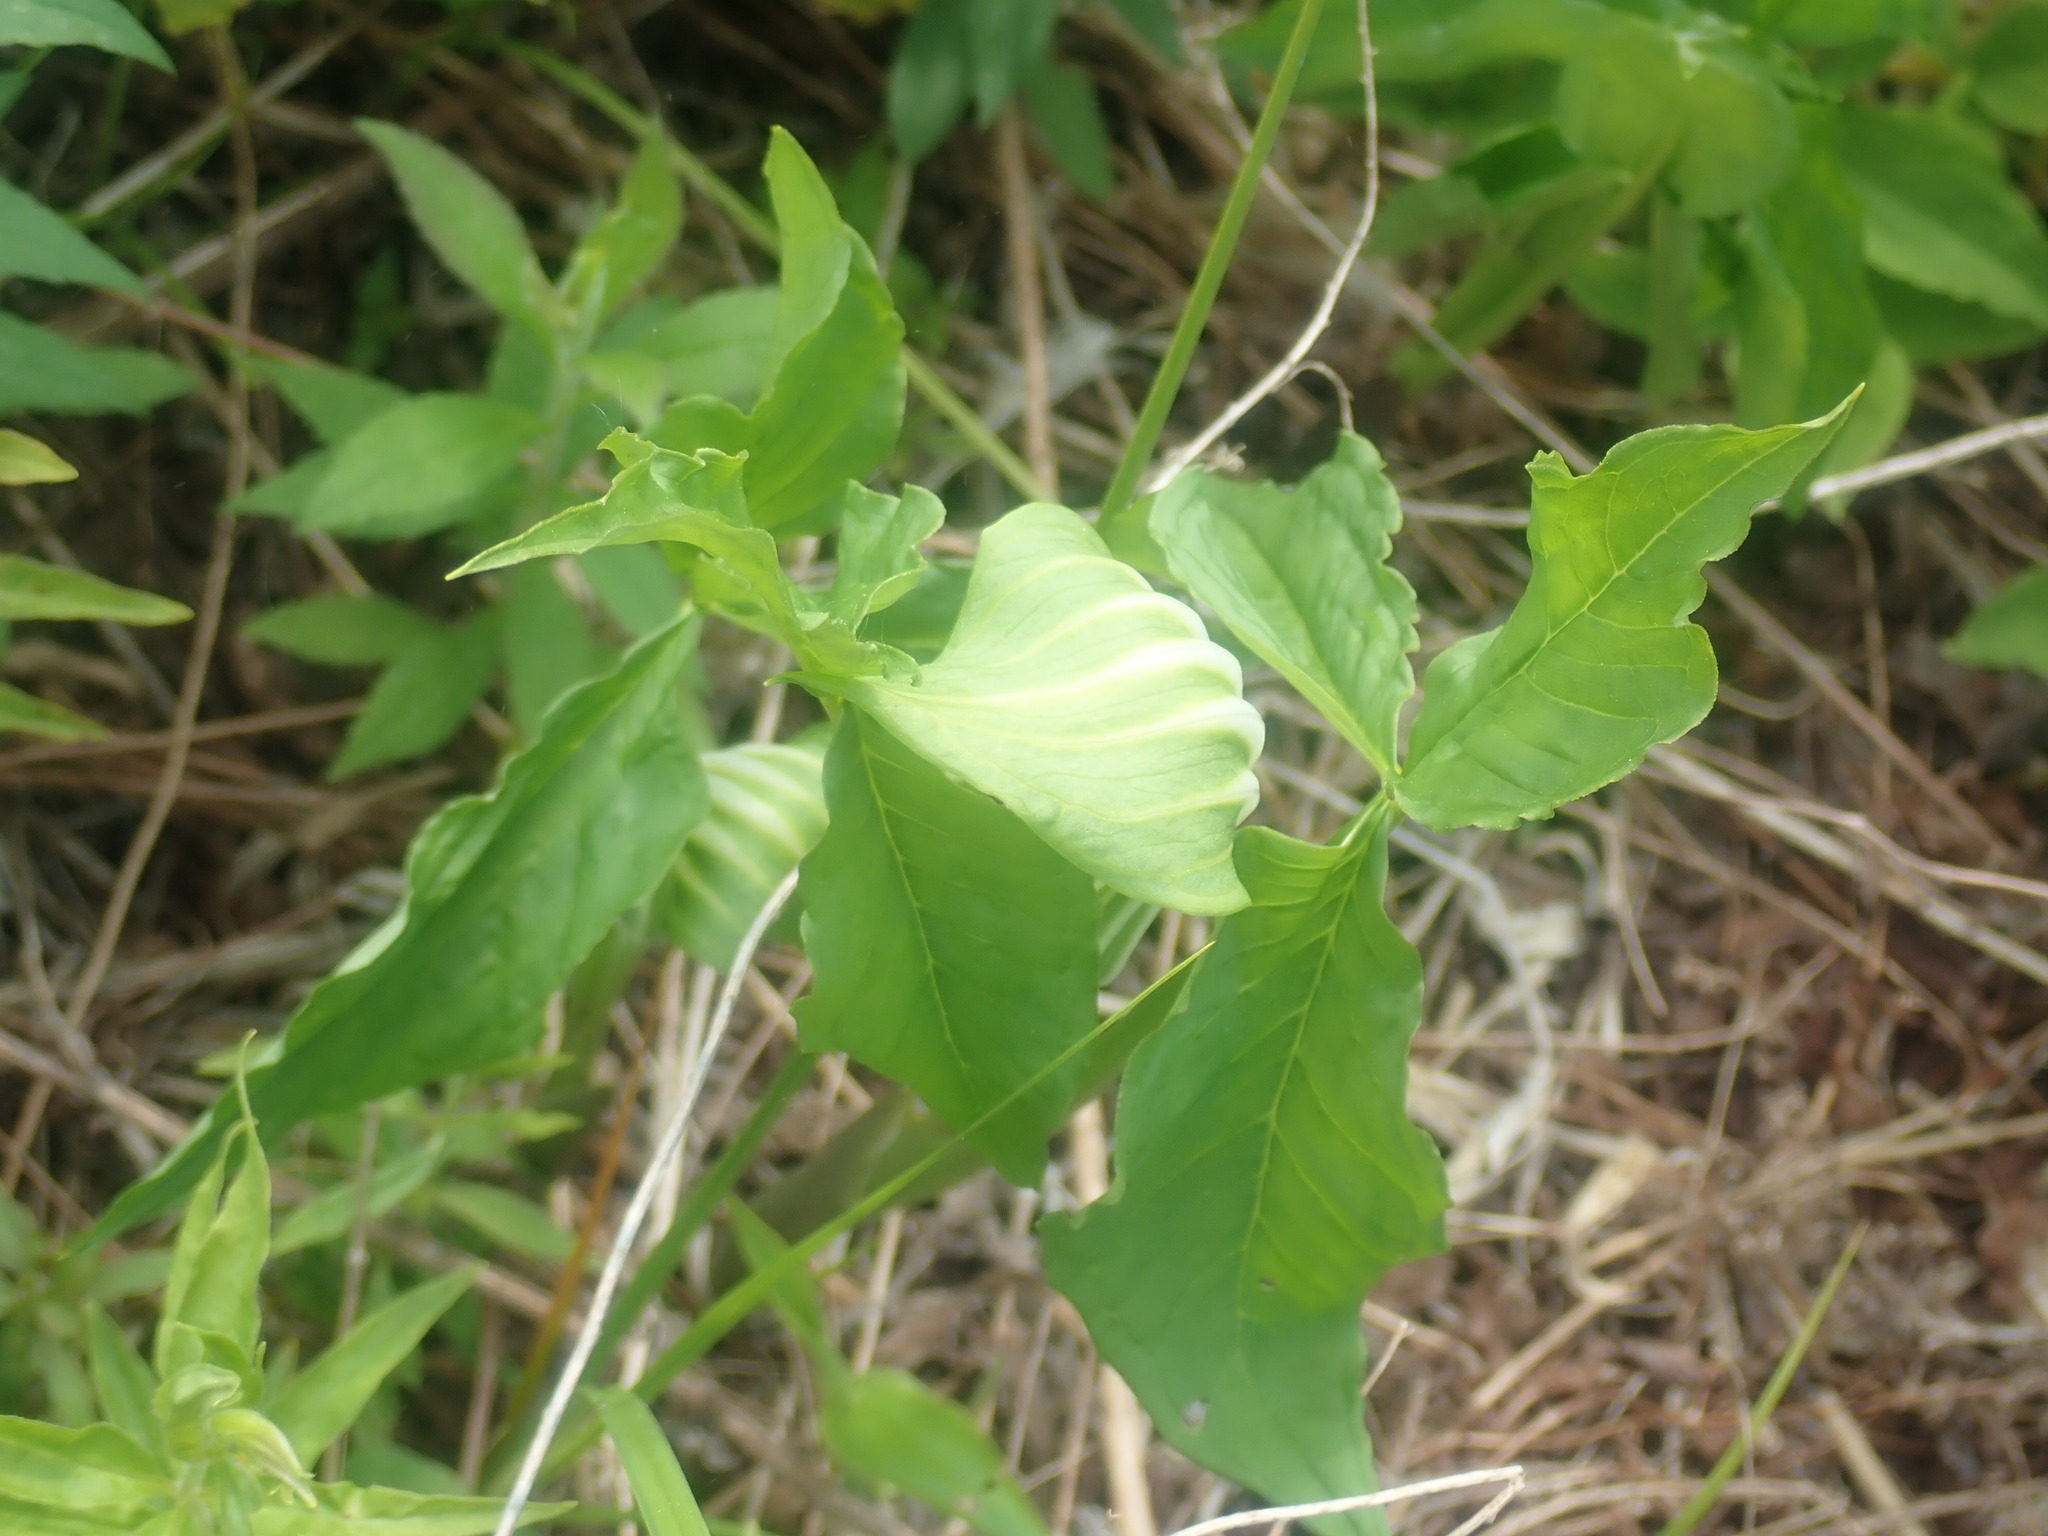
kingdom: Plantae
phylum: Tracheophyta
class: Liliopsida
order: Alismatales
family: Araceae
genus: Arisaema
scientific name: Arisaema stewardsonii
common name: Swamp jack-in-the-pulpit
